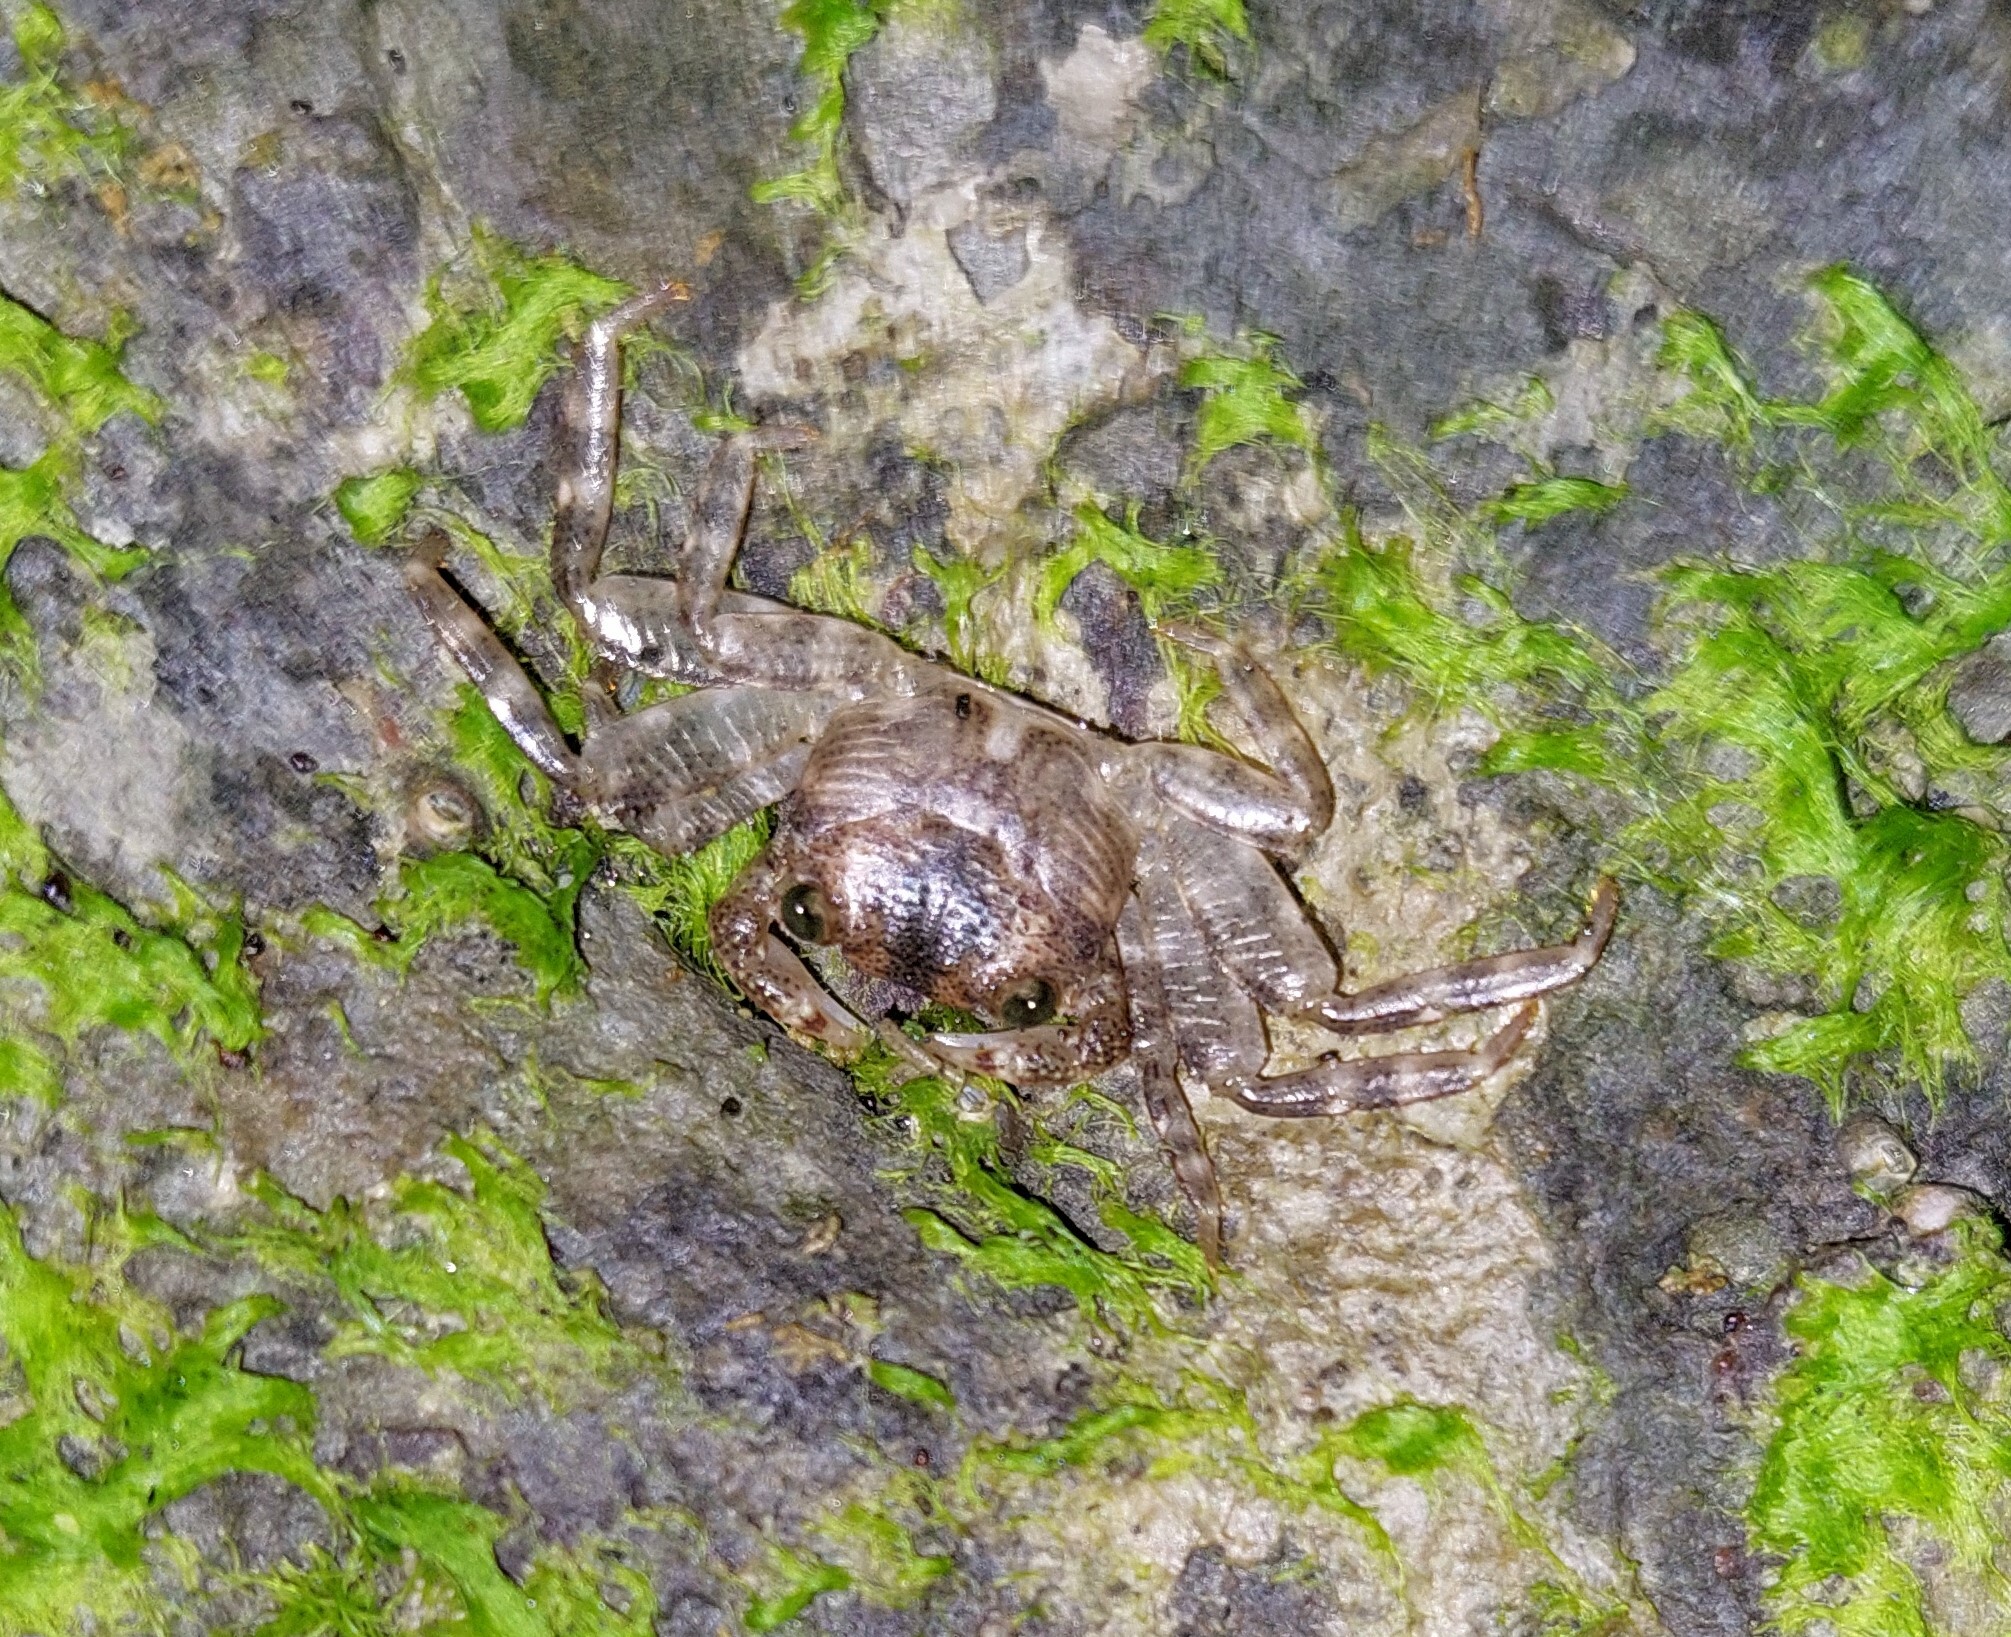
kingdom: Animalia
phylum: Arthropoda
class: Malacostraca
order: Decapoda
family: Grapsidae
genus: Leptograpsus
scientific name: Leptograpsus variegatus
